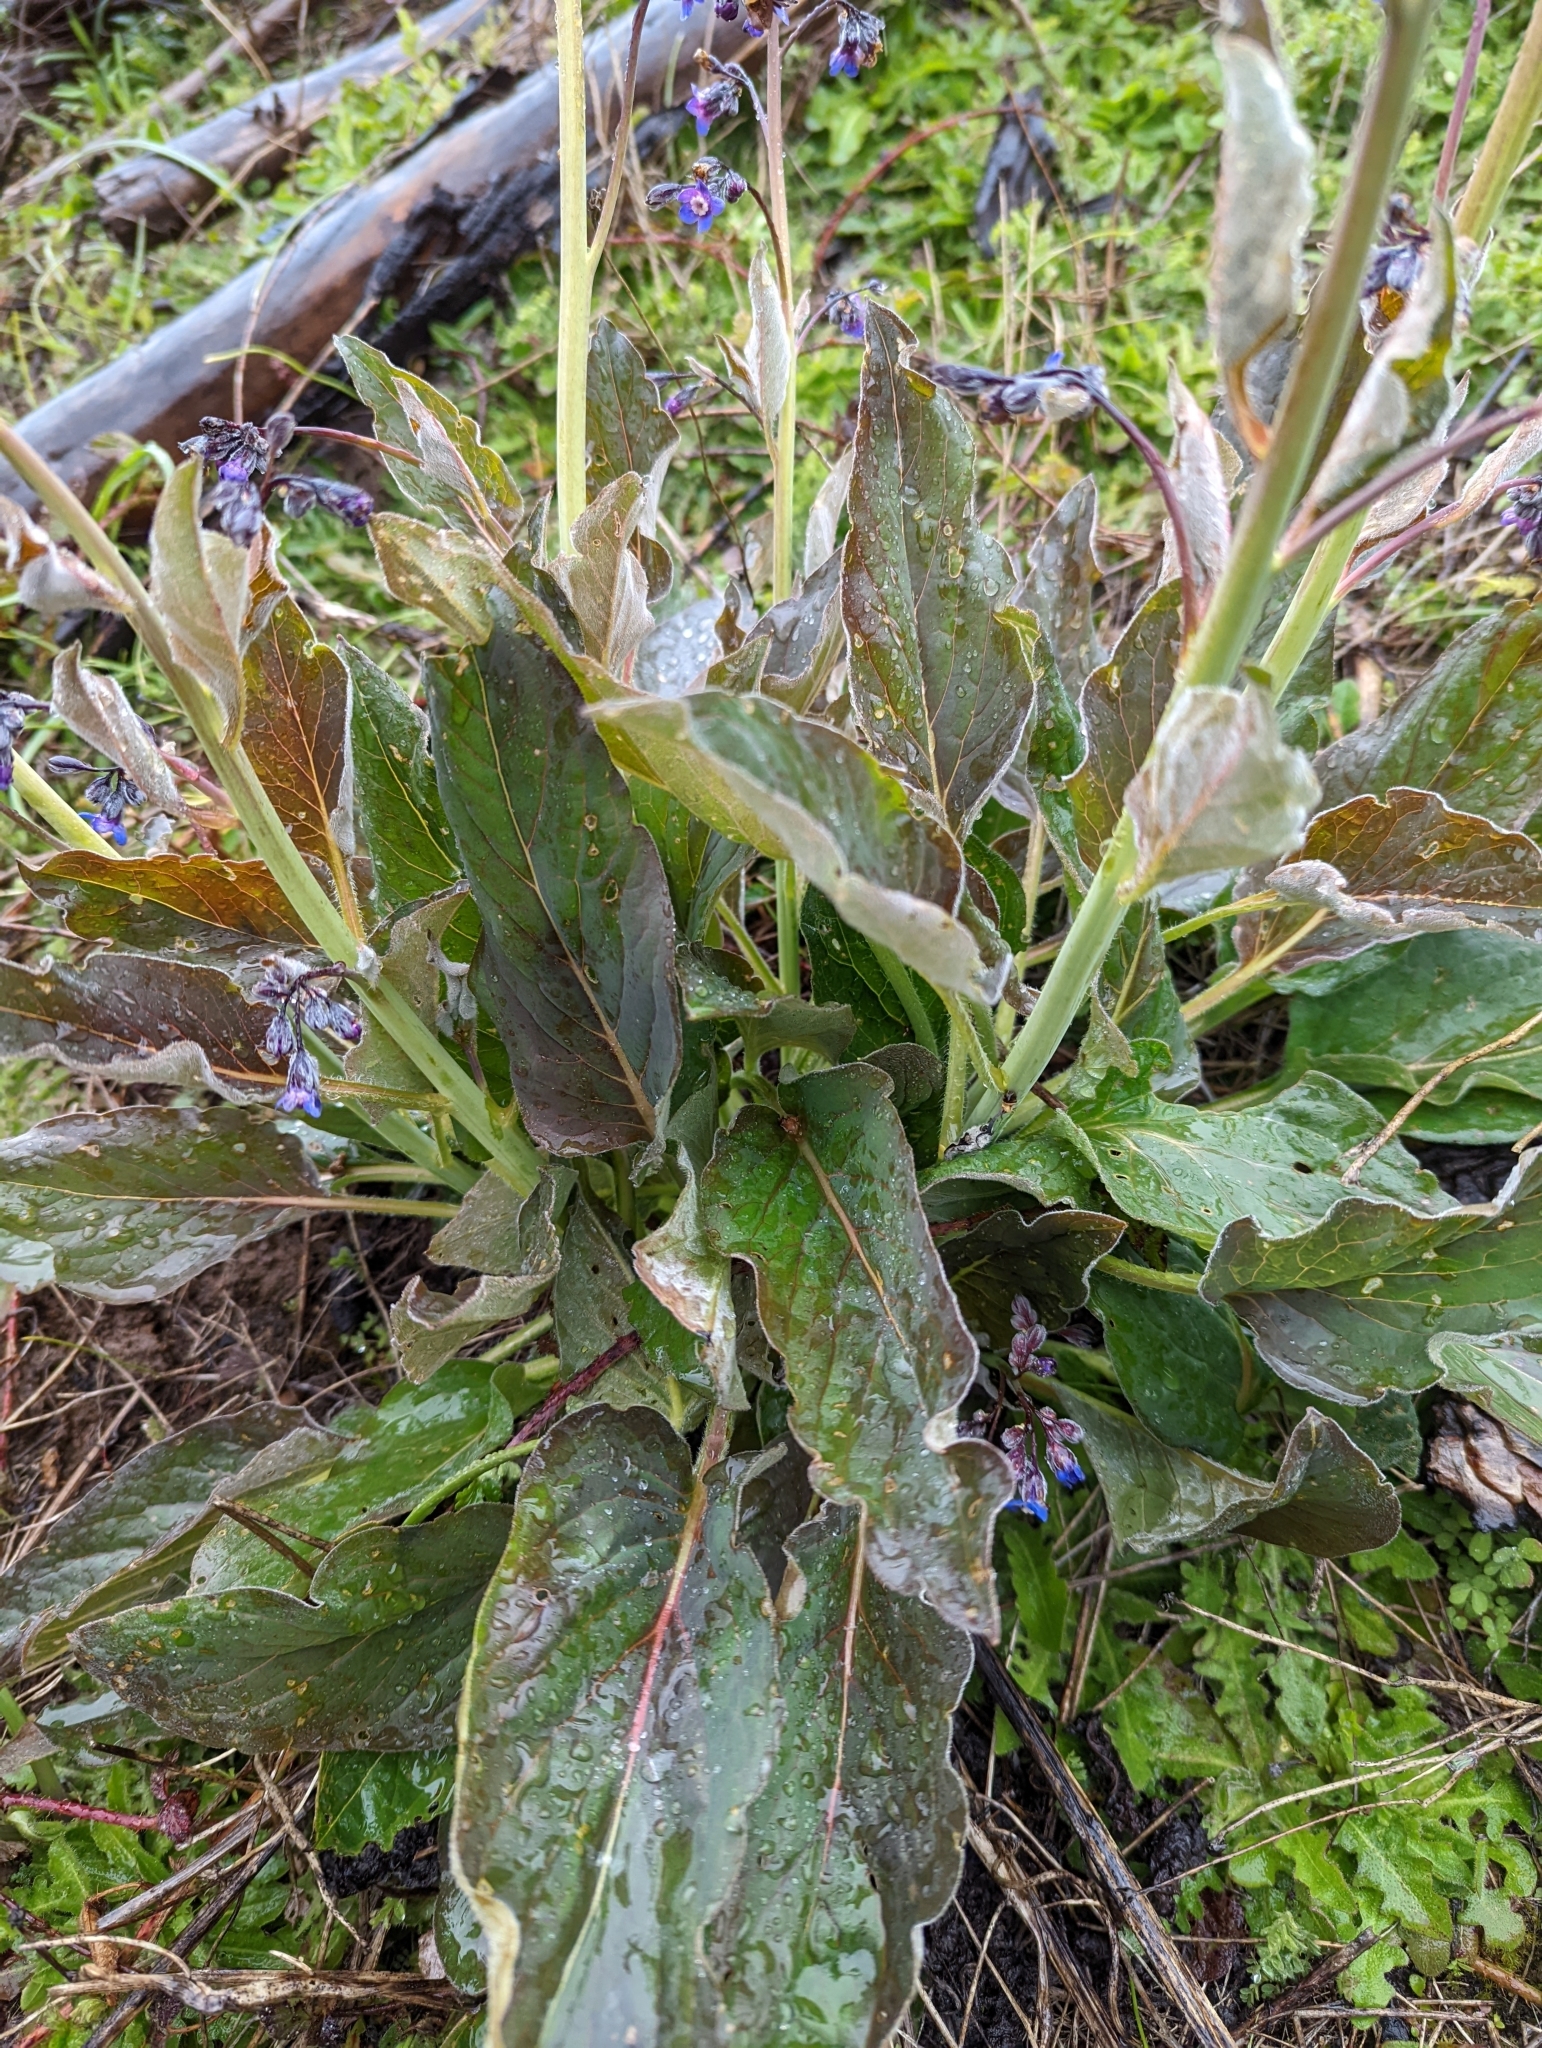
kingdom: Plantae
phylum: Tracheophyta
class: Magnoliopsida
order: Boraginales
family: Boraginaceae
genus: Adelinia
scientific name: Adelinia grande
